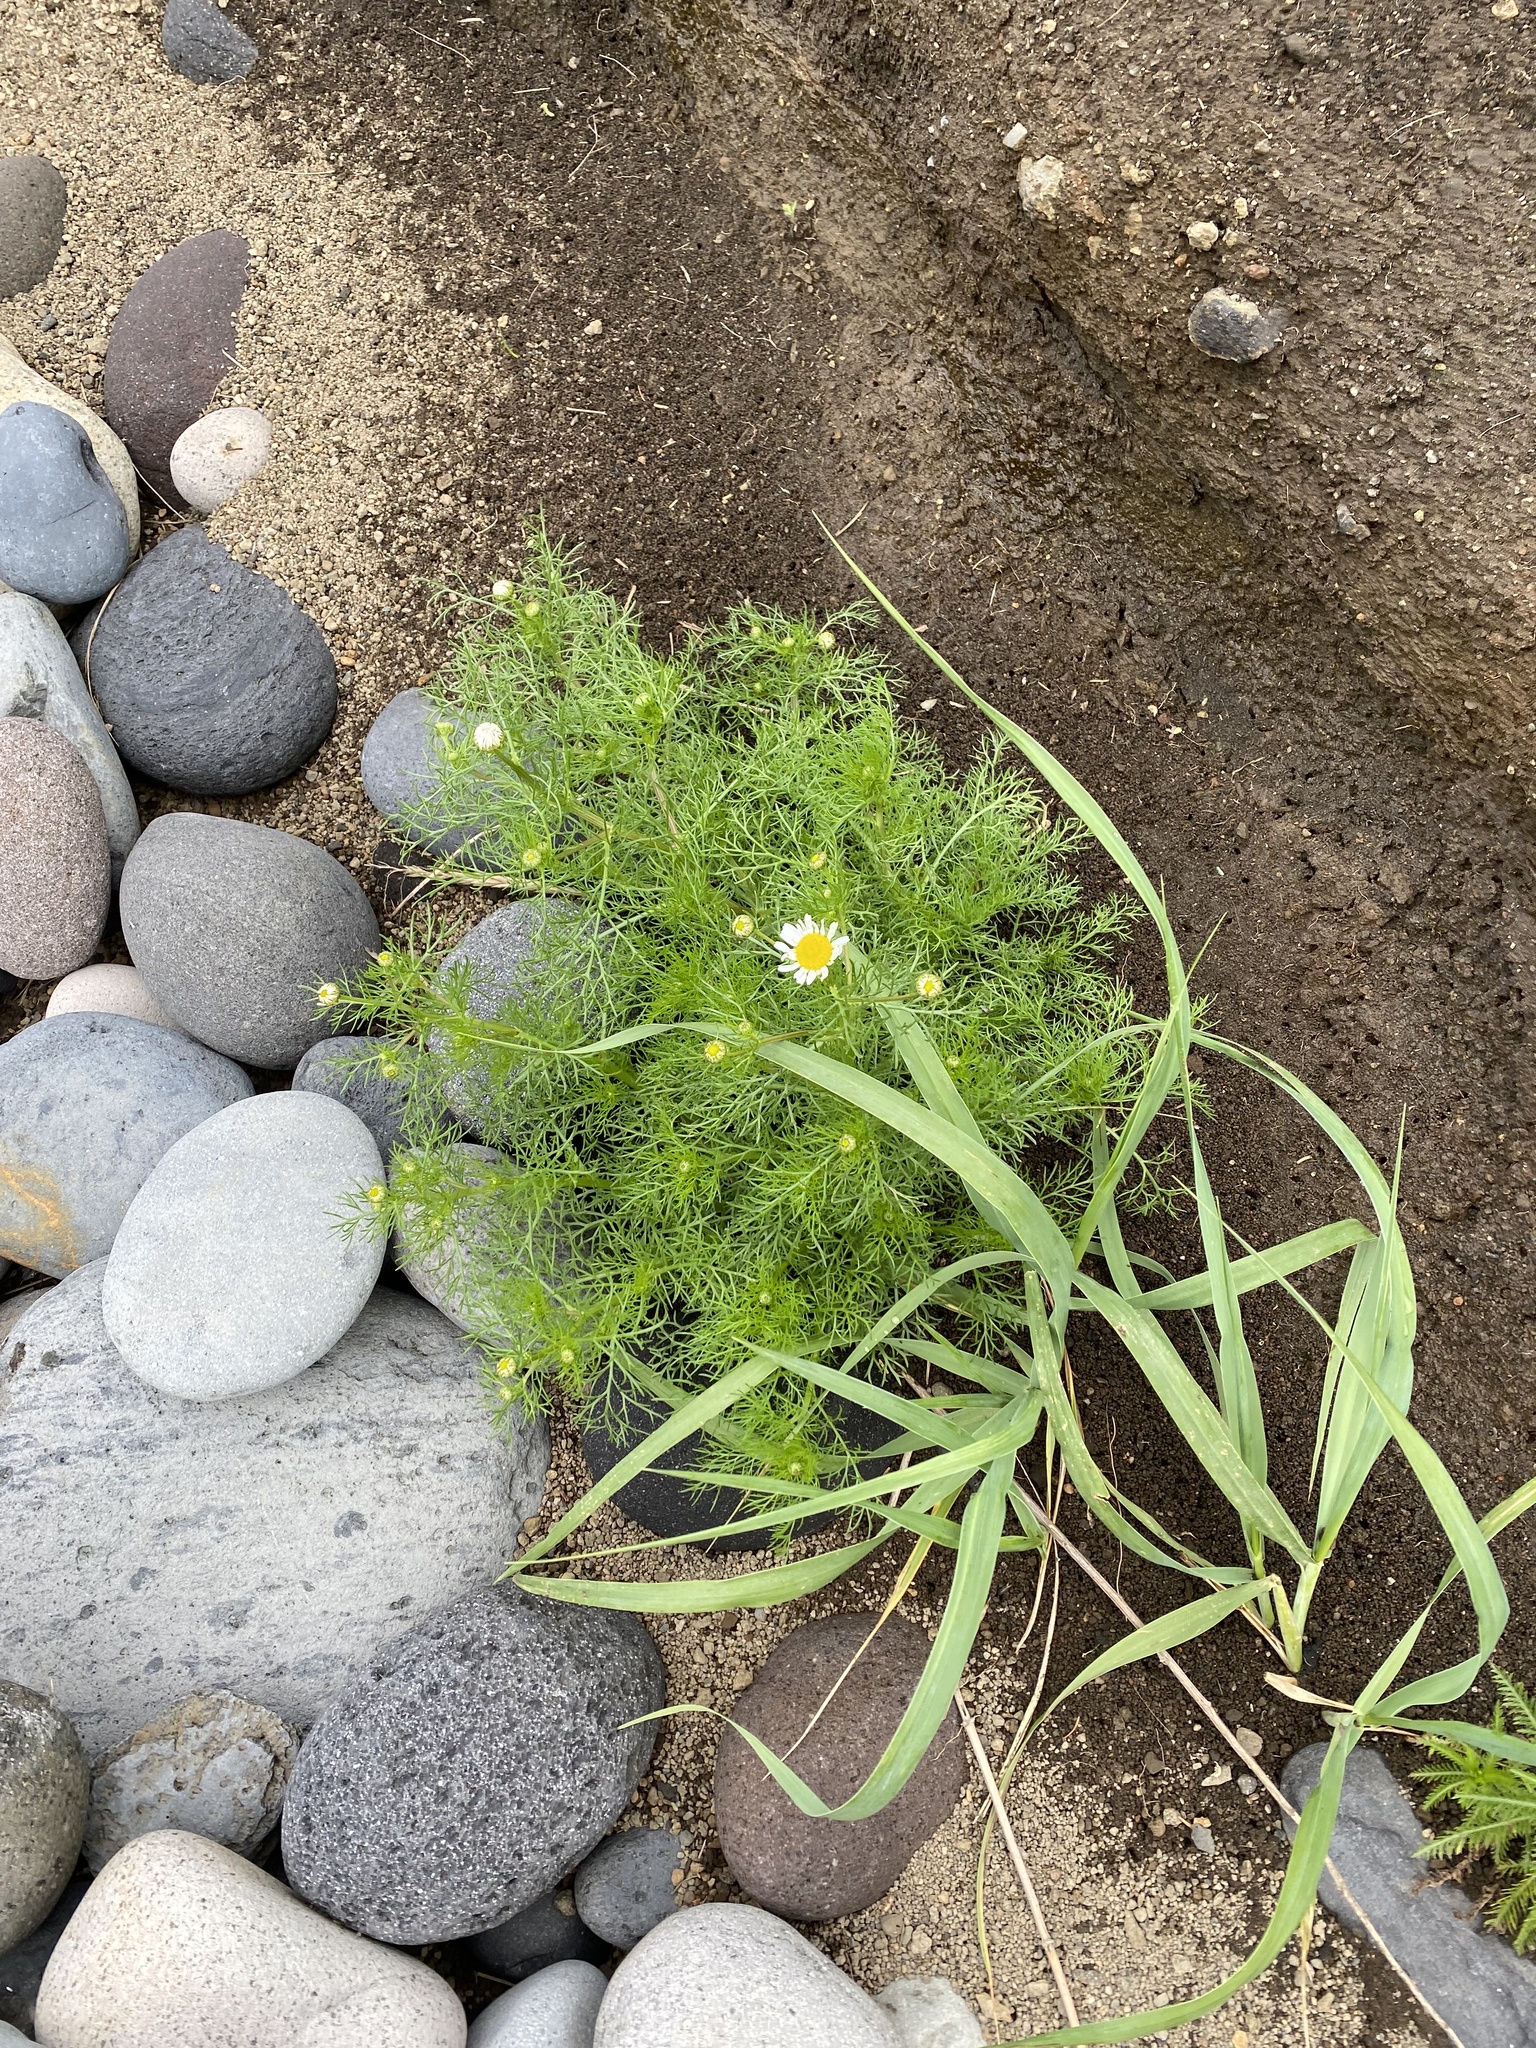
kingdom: Plantae
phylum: Tracheophyta
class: Magnoliopsida
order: Asterales
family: Asteraceae
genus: Tripleurospermum
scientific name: Tripleurospermum inodorum
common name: Scentless mayweed
